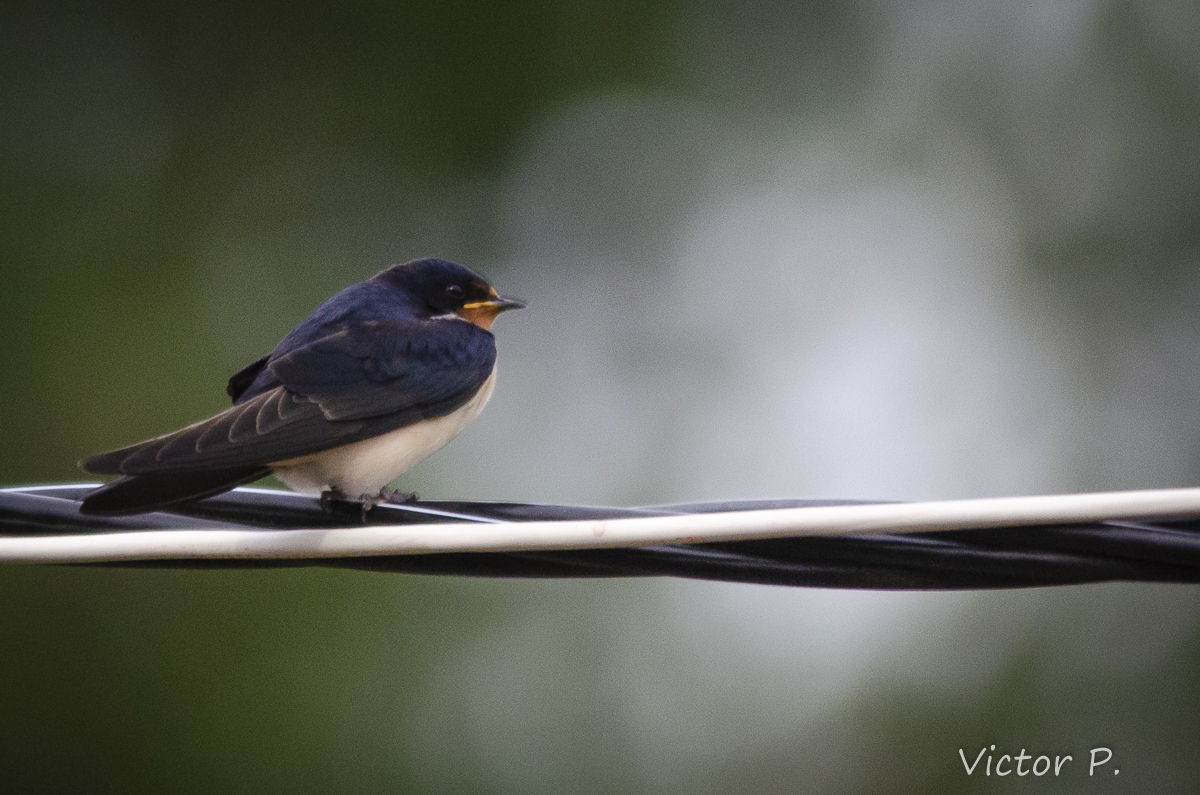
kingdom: Animalia
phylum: Chordata
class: Aves
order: Passeriformes
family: Hirundinidae
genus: Hirundo
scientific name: Hirundo rustica
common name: Barn swallow
